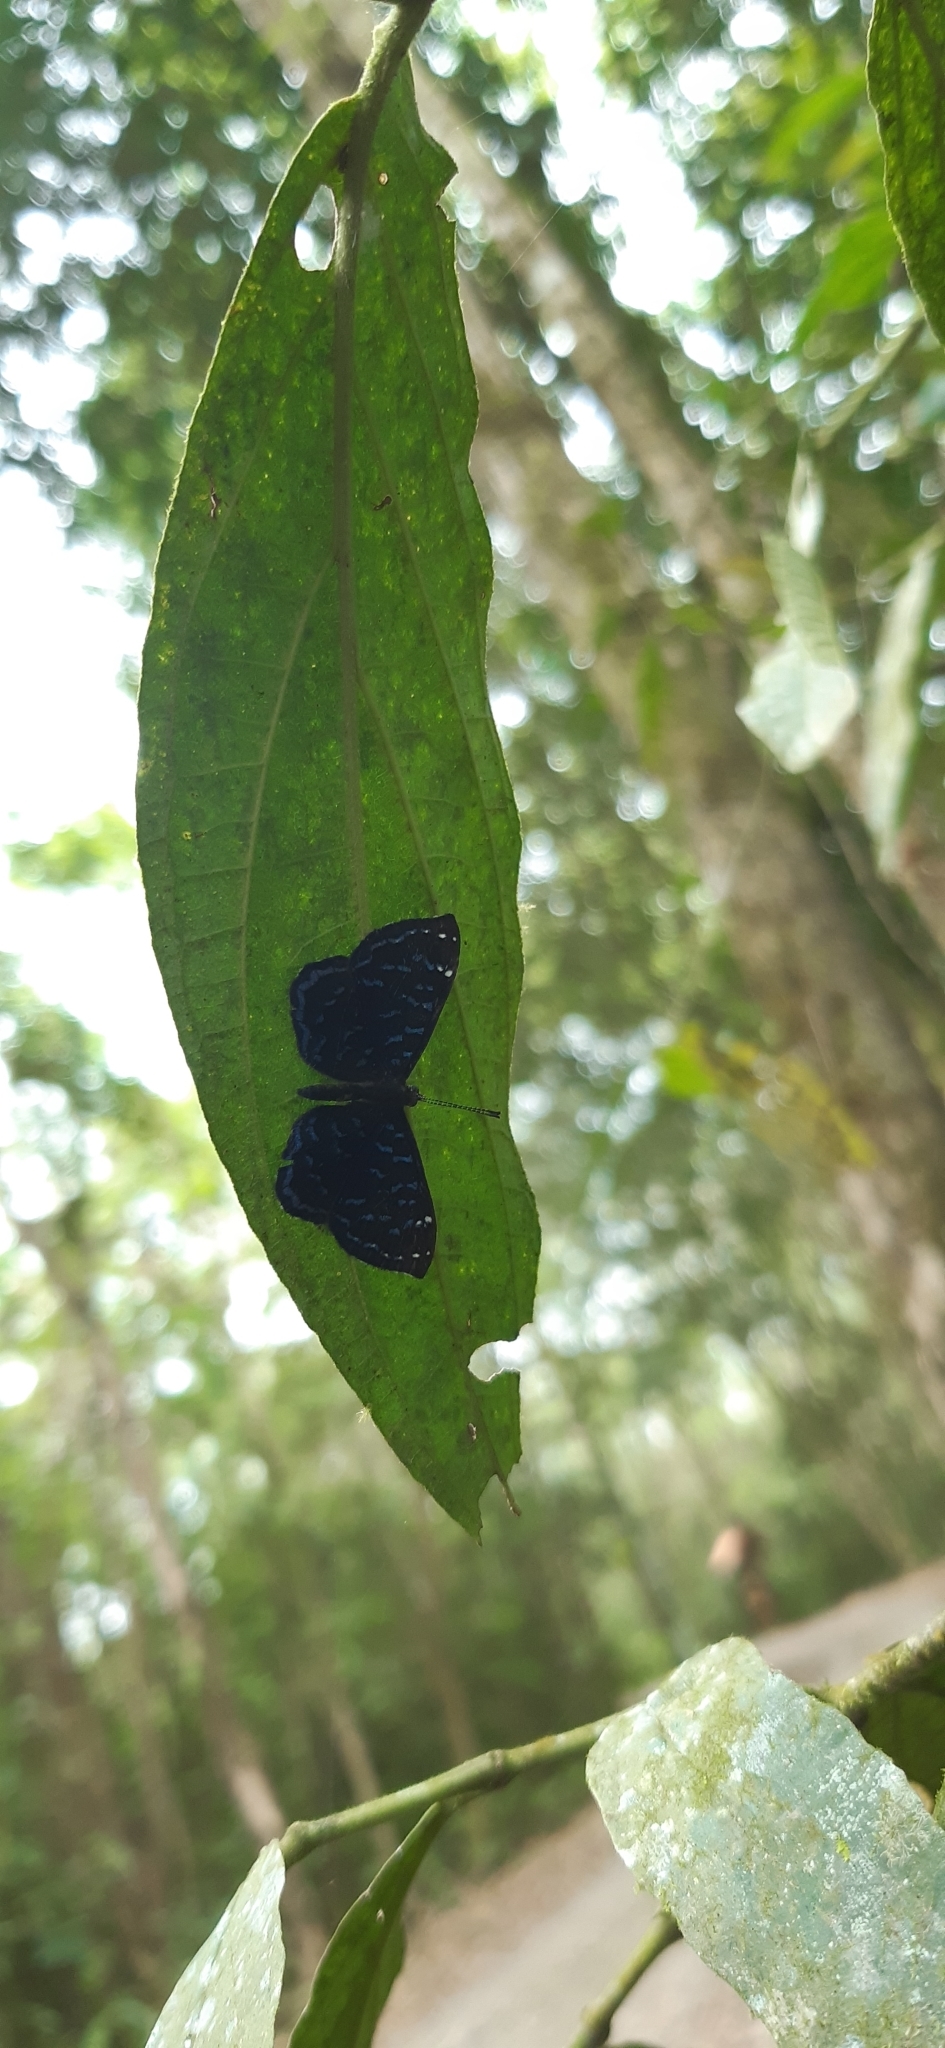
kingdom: Animalia
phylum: Arthropoda
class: Insecta
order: Lepidoptera
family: Riodinidae
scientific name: Riodinidae
